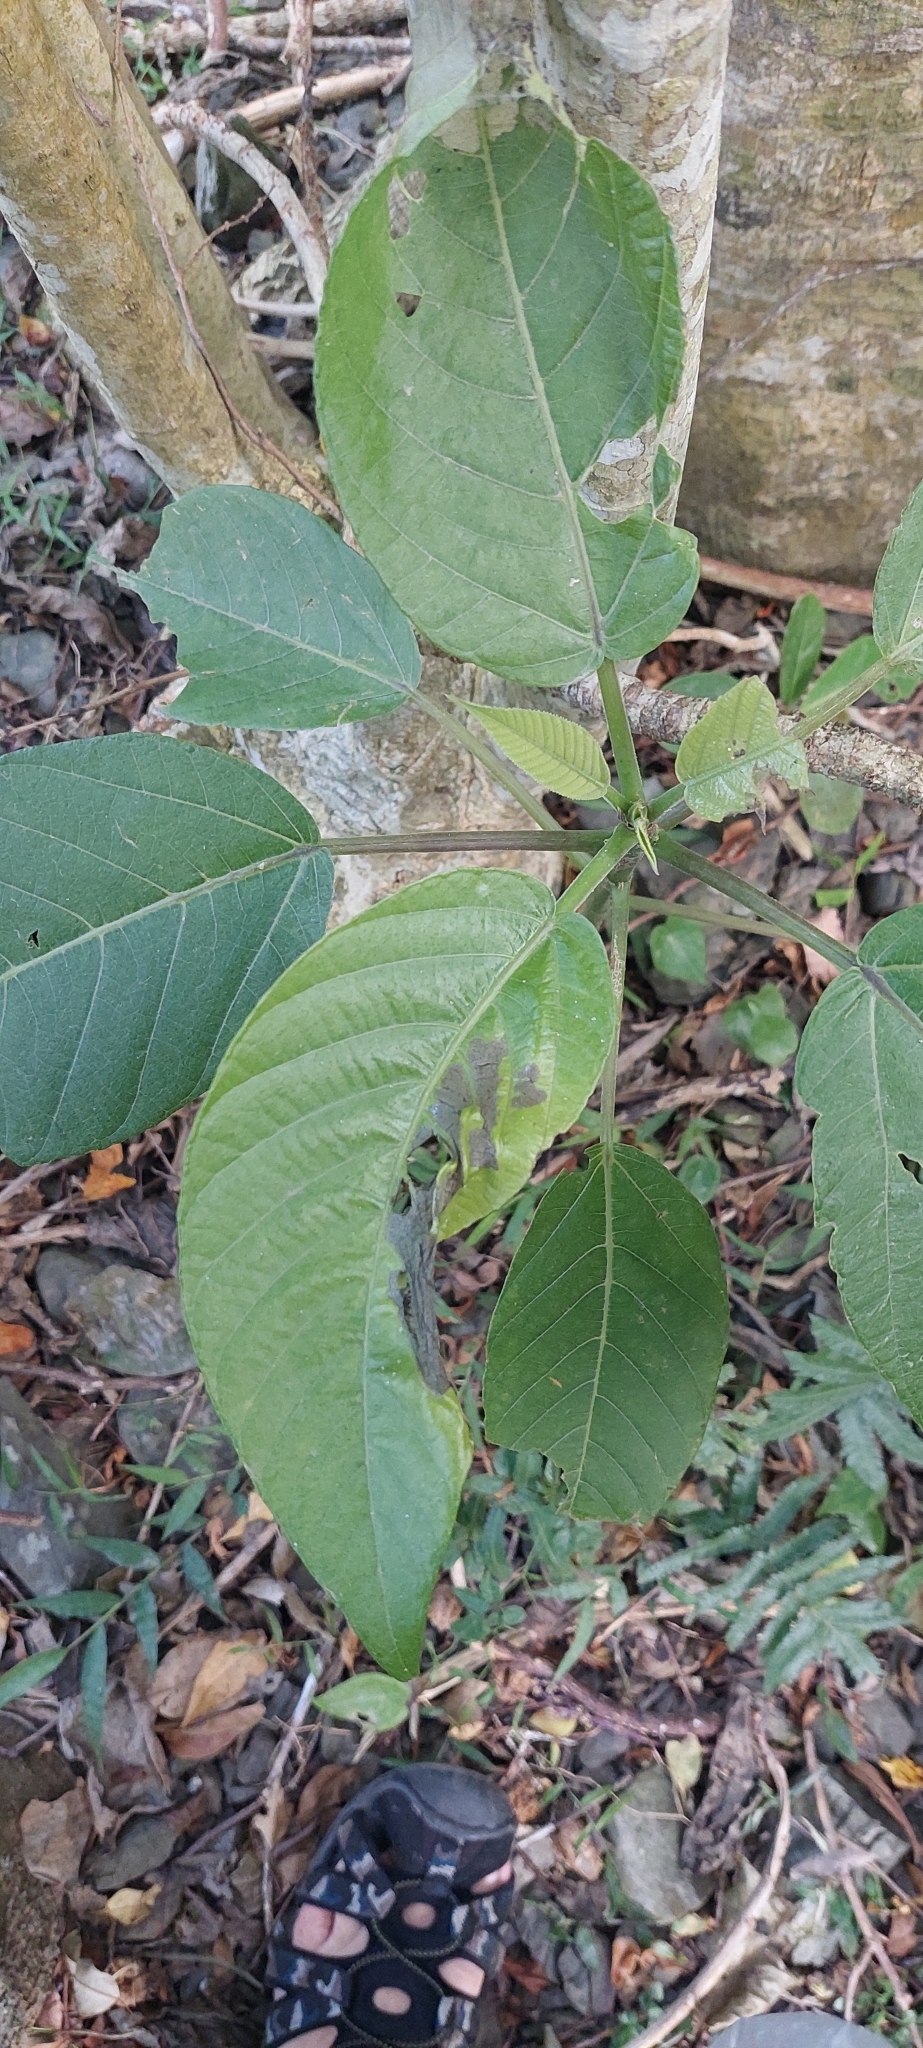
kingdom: Plantae
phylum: Tracheophyta
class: Magnoliopsida
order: Rosales
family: Urticaceae
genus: Dendrocnide
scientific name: Dendrocnide meyeniana
